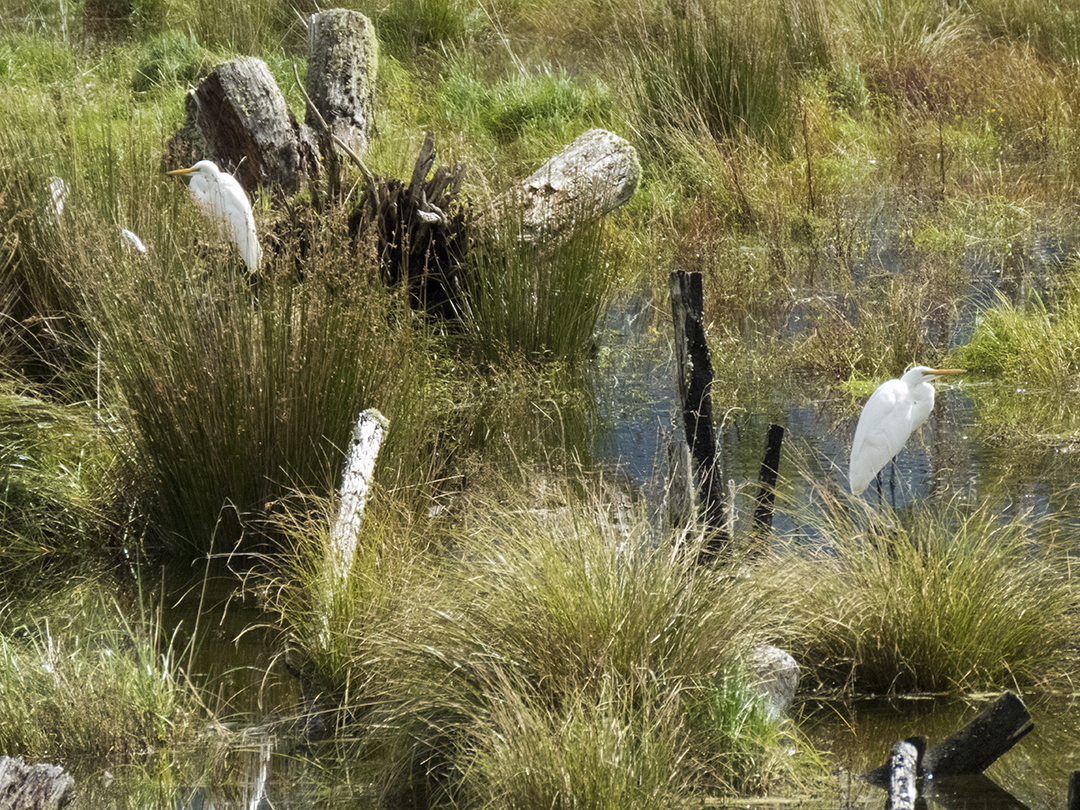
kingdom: Animalia
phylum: Chordata
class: Aves
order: Pelecaniformes
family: Ardeidae
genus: Ardea
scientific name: Ardea modesta
